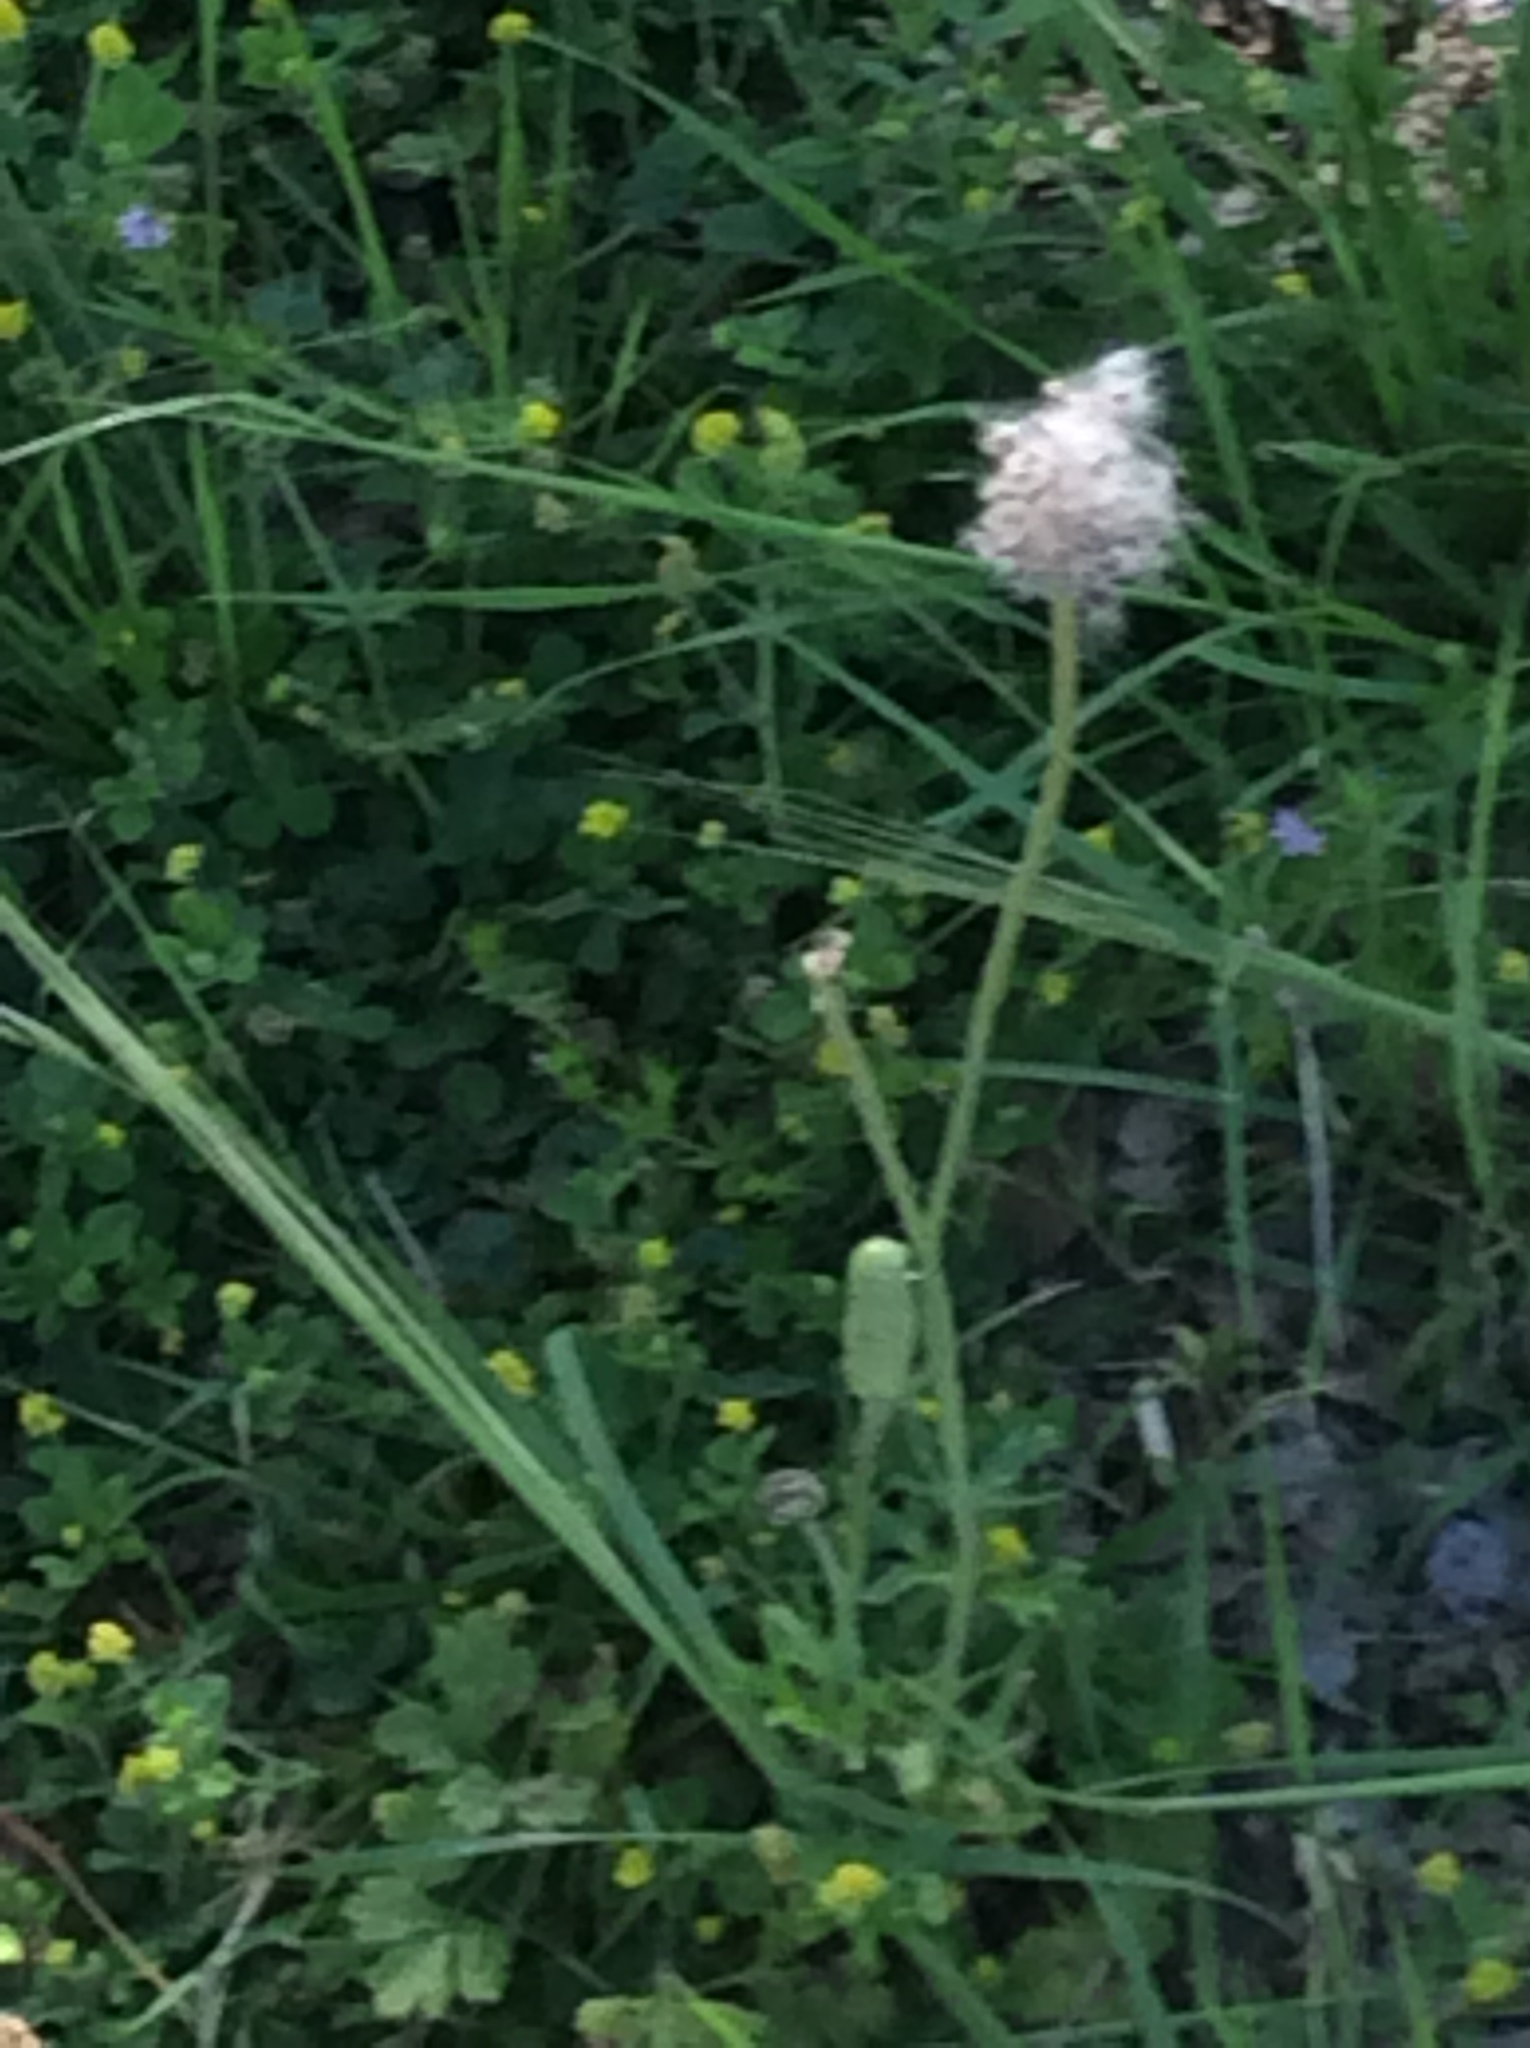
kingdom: Plantae
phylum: Tracheophyta
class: Magnoliopsida
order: Ranunculales
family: Ranunculaceae
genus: Anemone
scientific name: Anemone berlandieri
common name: Ten-petal anemone
